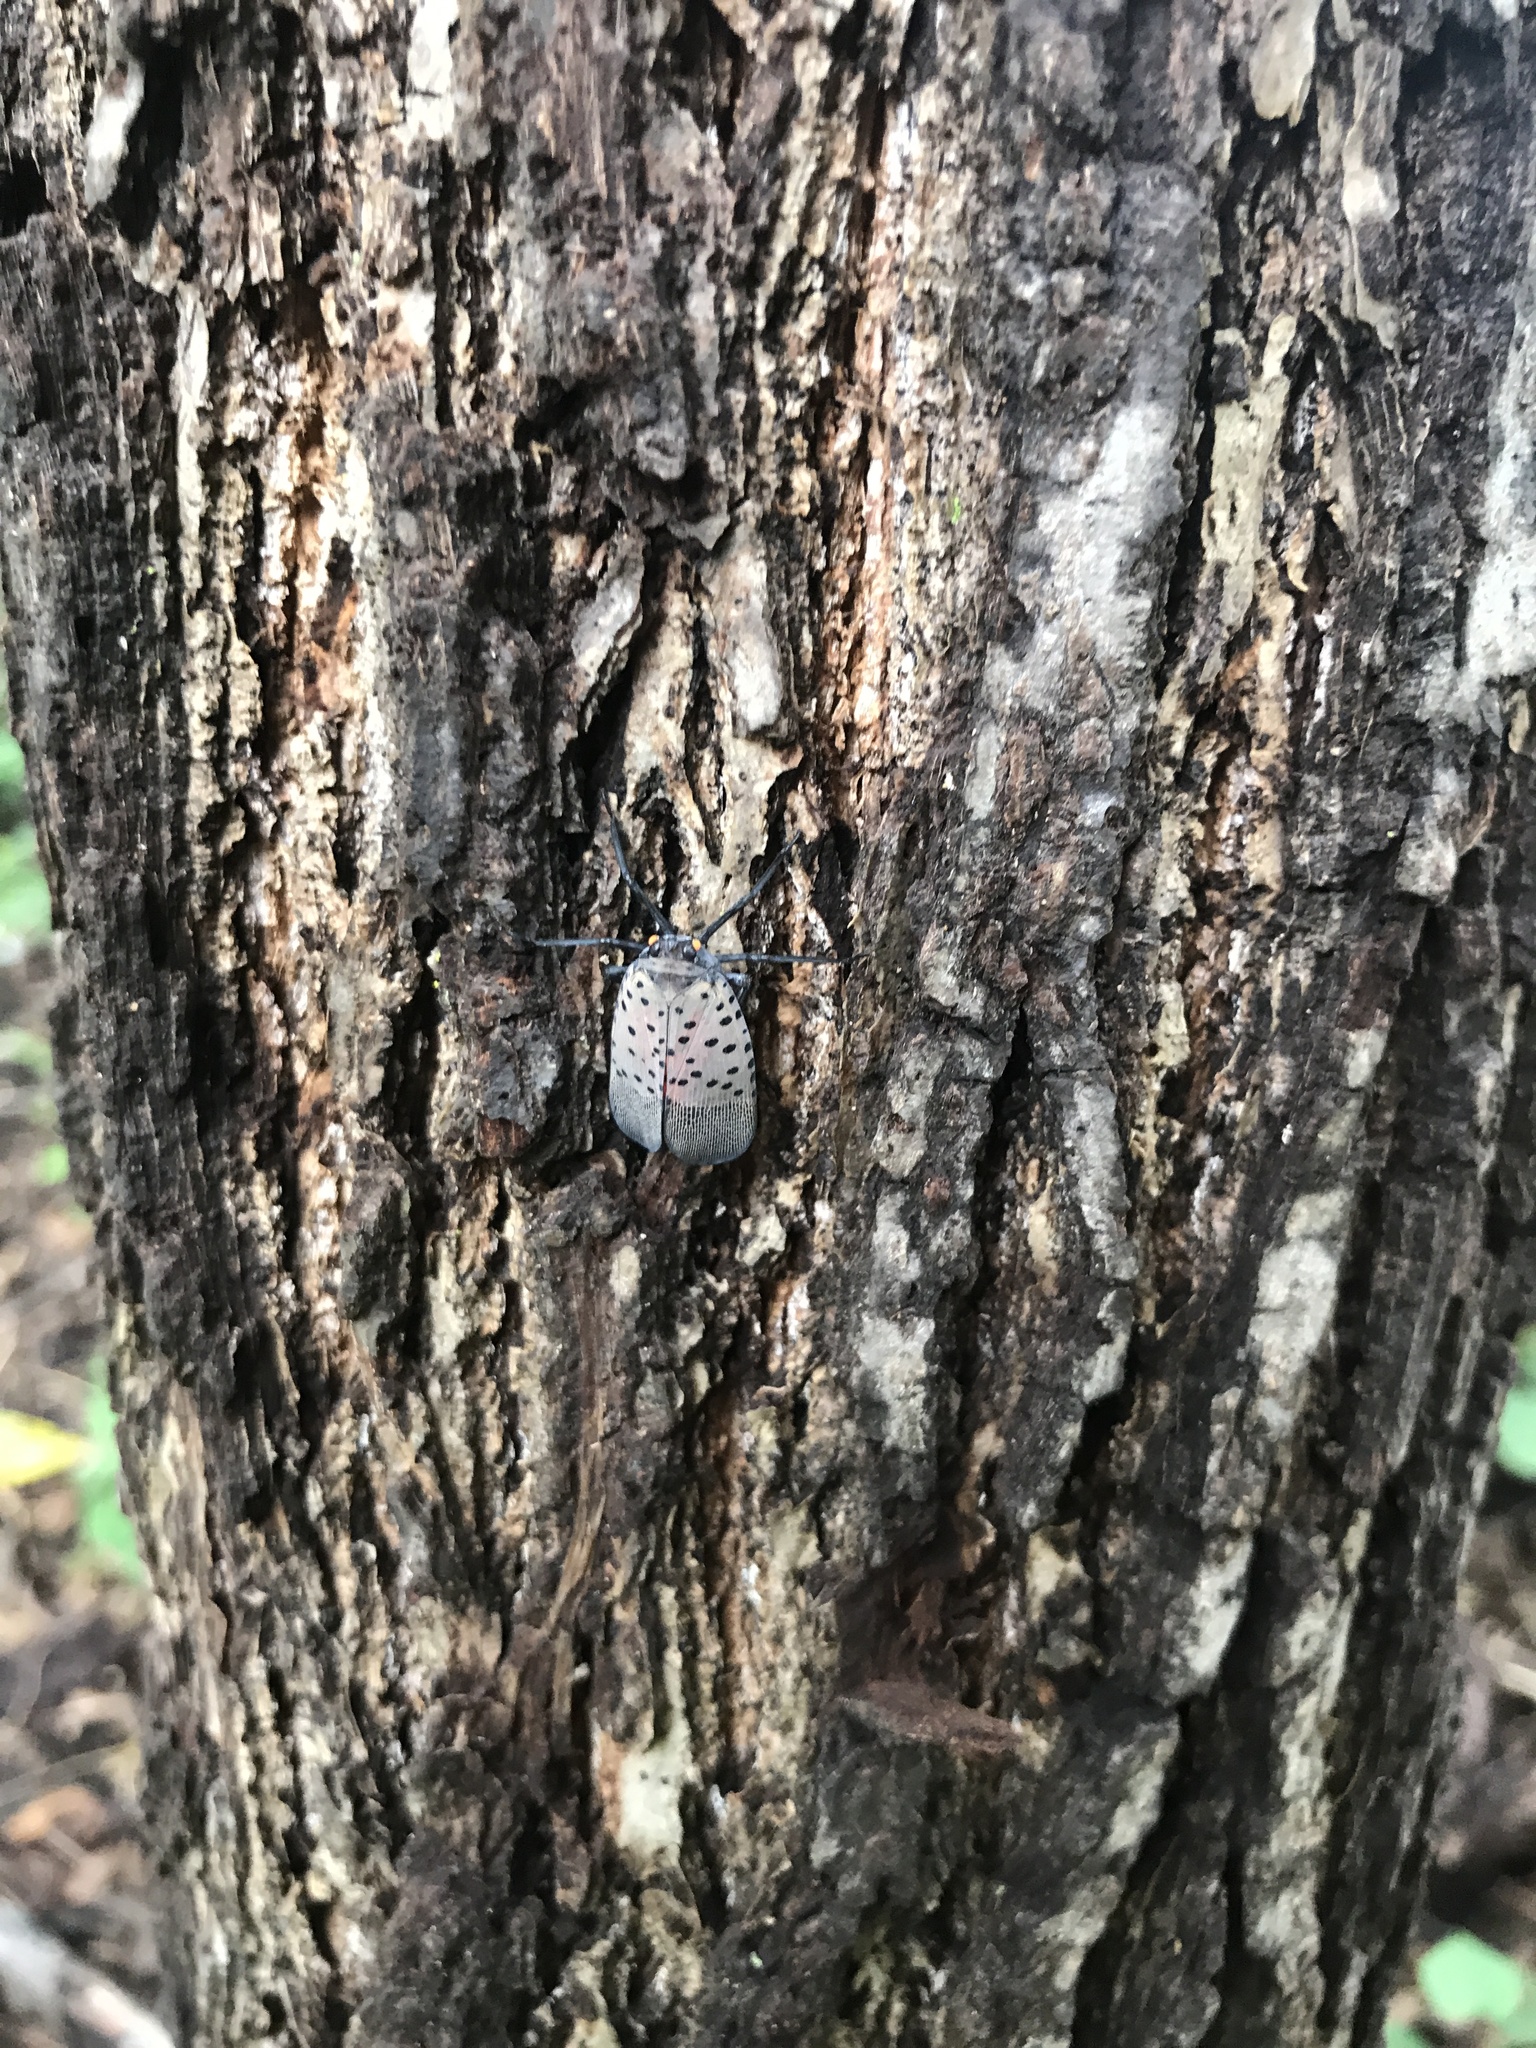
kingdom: Animalia
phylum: Arthropoda
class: Insecta
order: Hemiptera
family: Fulgoridae
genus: Lycorma
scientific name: Lycorma delicatula
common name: Spotted lanternfly
